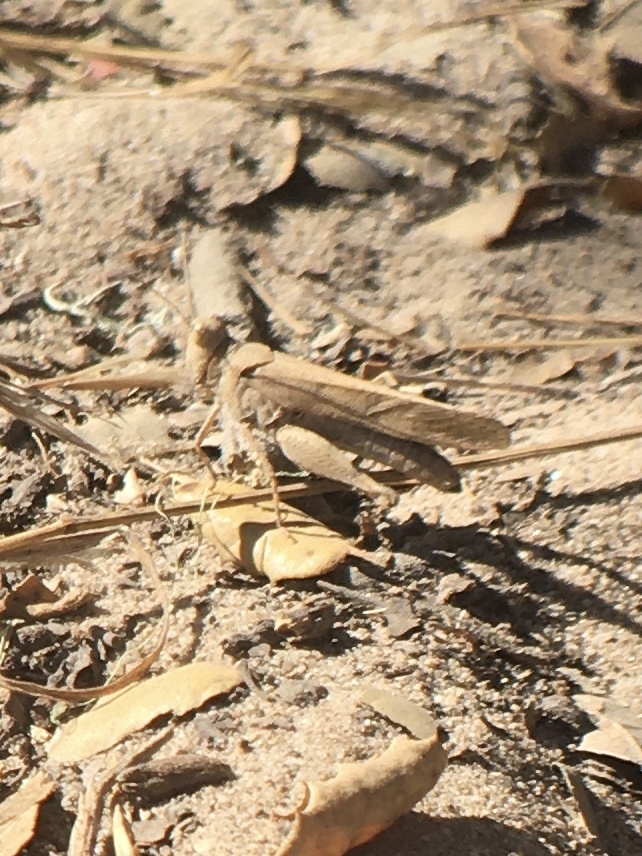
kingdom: Animalia
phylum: Arthropoda
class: Insecta
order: Orthoptera
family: Acrididae
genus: Trimerotropis
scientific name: Trimerotropis thalassica
